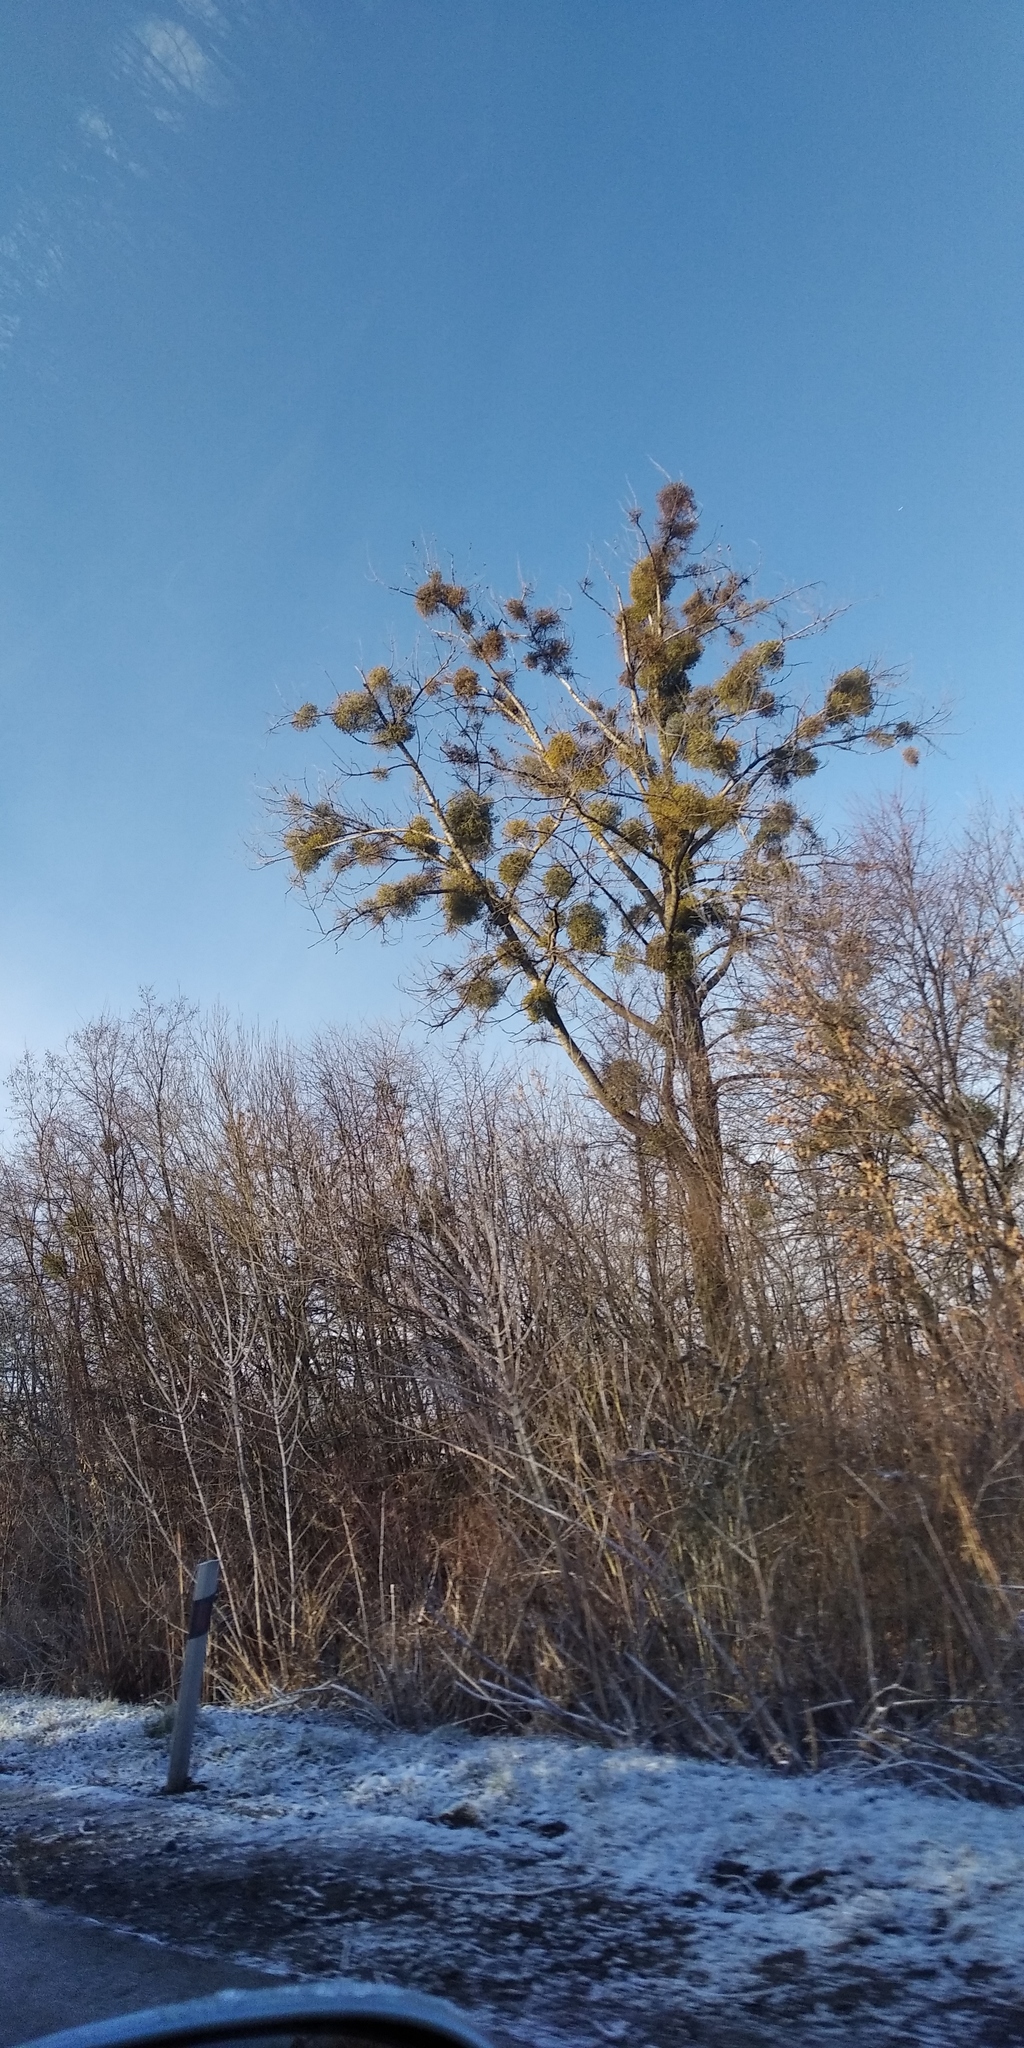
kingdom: Plantae
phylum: Tracheophyta
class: Magnoliopsida
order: Santalales
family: Viscaceae
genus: Viscum
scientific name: Viscum album
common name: Mistletoe
